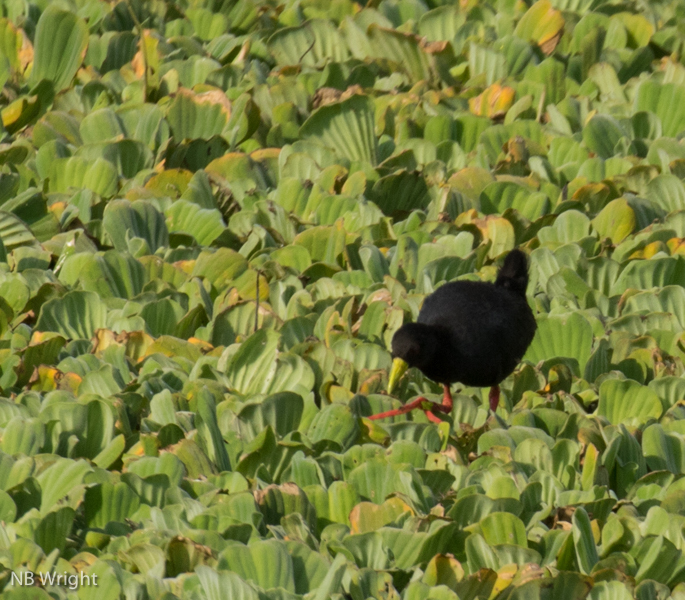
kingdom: Animalia
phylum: Chordata
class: Aves
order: Gruiformes
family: Rallidae
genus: Amaurornis
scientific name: Amaurornis flavirostra
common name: Black crake
